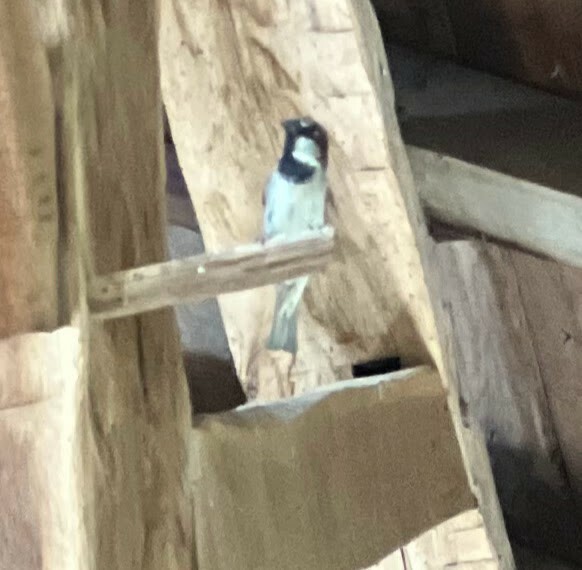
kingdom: Animalia
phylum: Chordata
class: Aves
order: Passeriformes
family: Passeridae
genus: Passer
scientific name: Passer domesticus
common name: House sparrow
